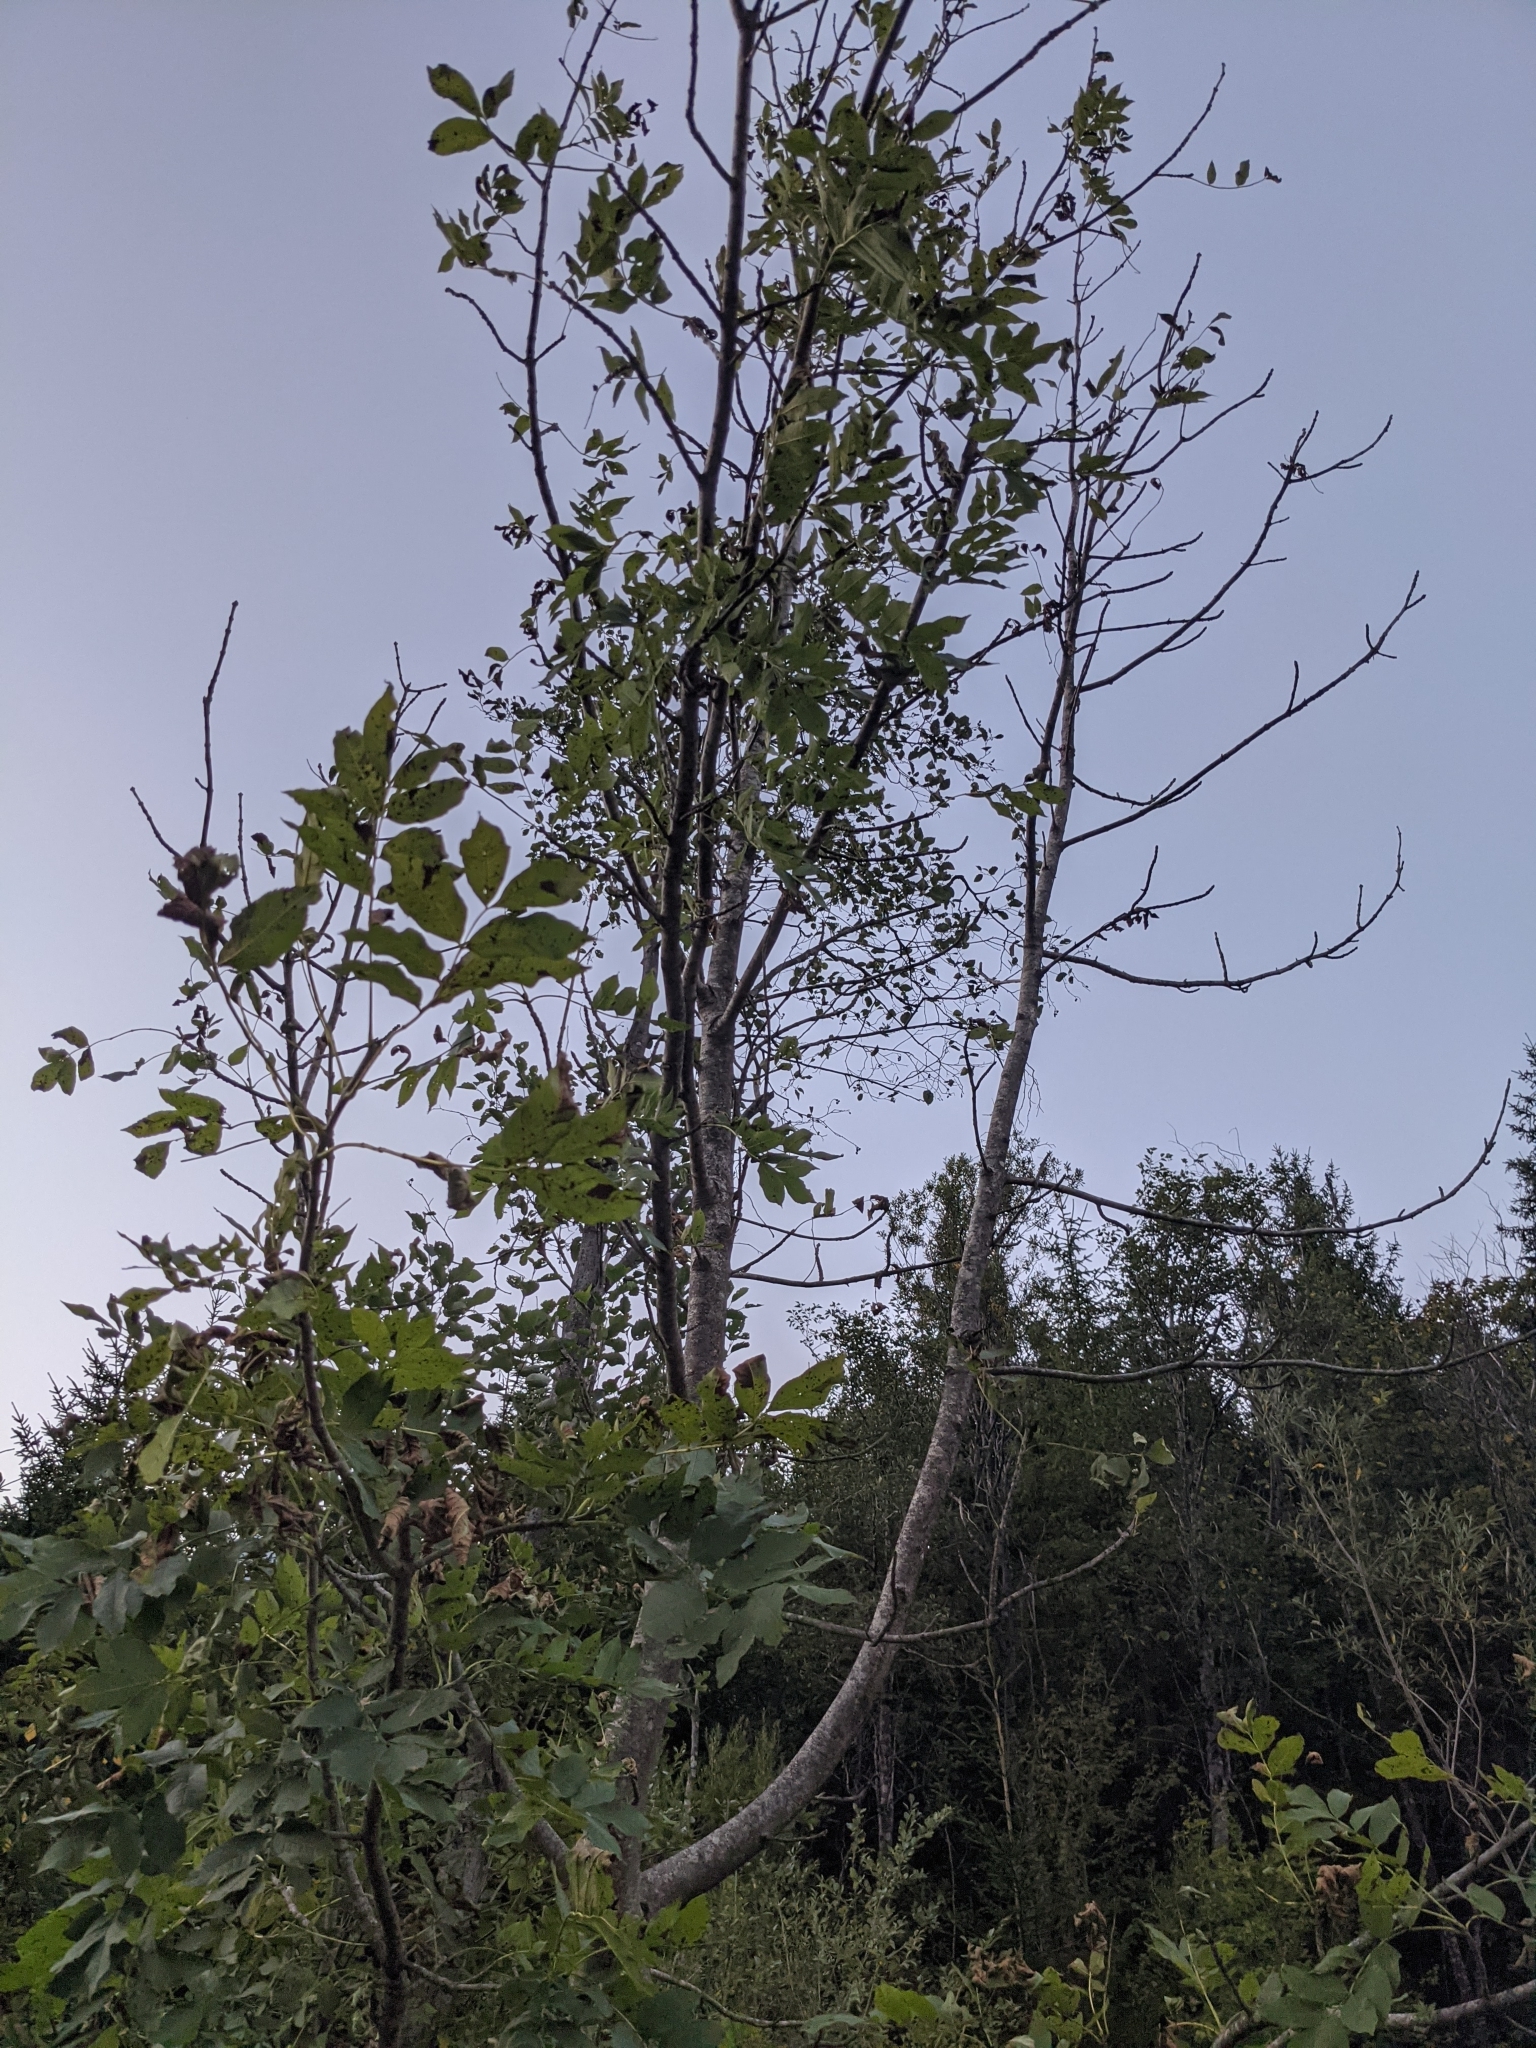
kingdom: Plantae
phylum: Tracheophyta
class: Magnoliopsida
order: Lamiales
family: Oleaceae
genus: Fraxinus
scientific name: Fraxinus excelsior
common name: European ash
